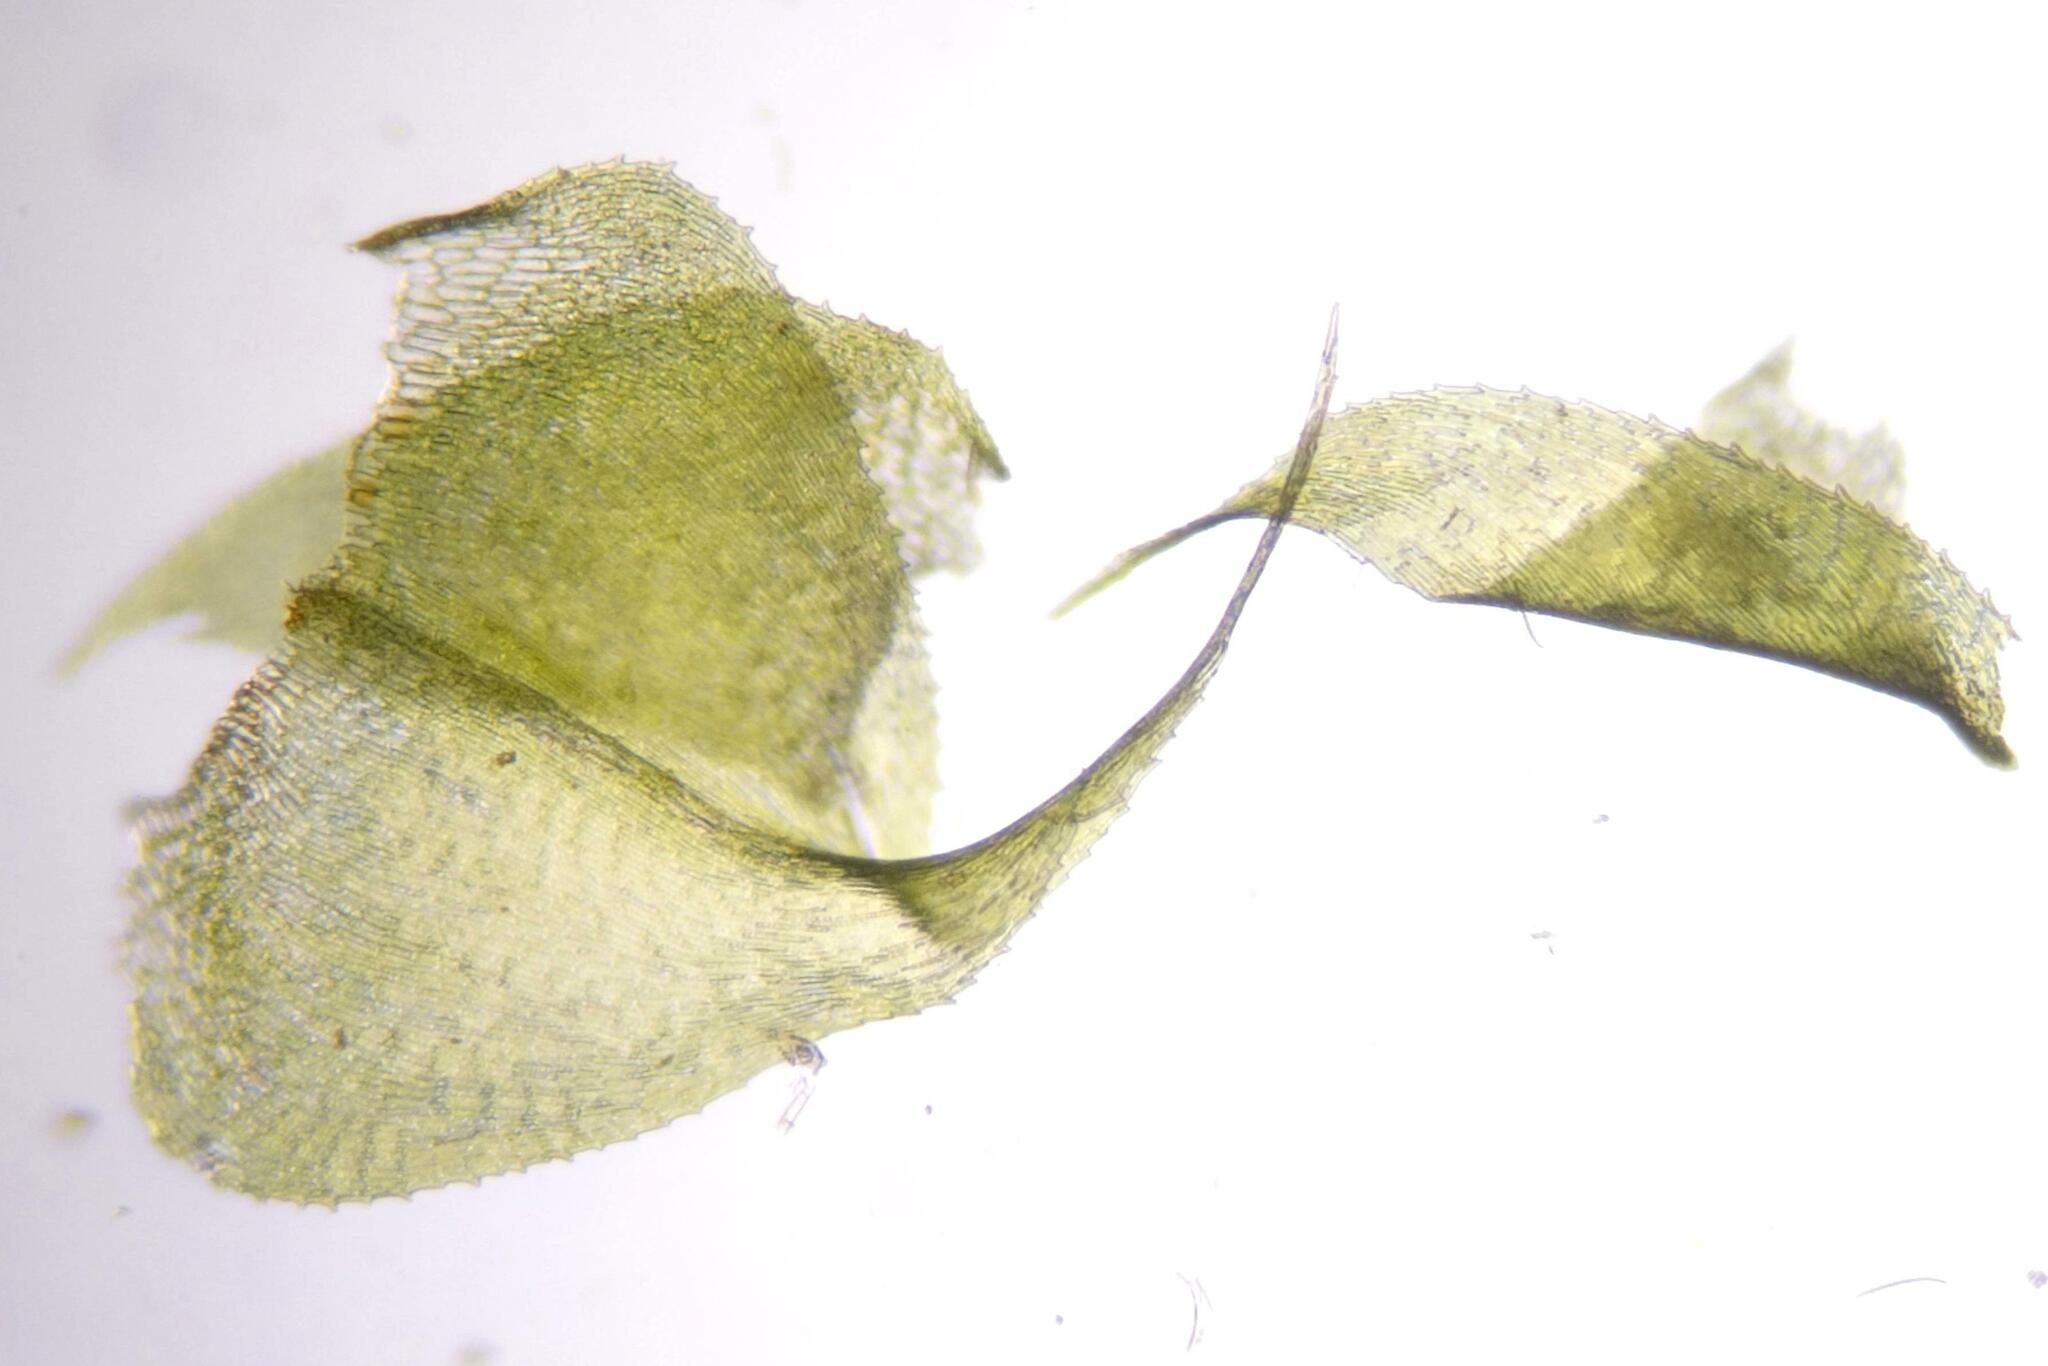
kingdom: Plantae
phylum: Bryophyta
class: Bryopsida
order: Hypnales
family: Brachytheciaceae
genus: Kindbergia
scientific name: Kindbergia praelonga
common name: Slender beaked moss
